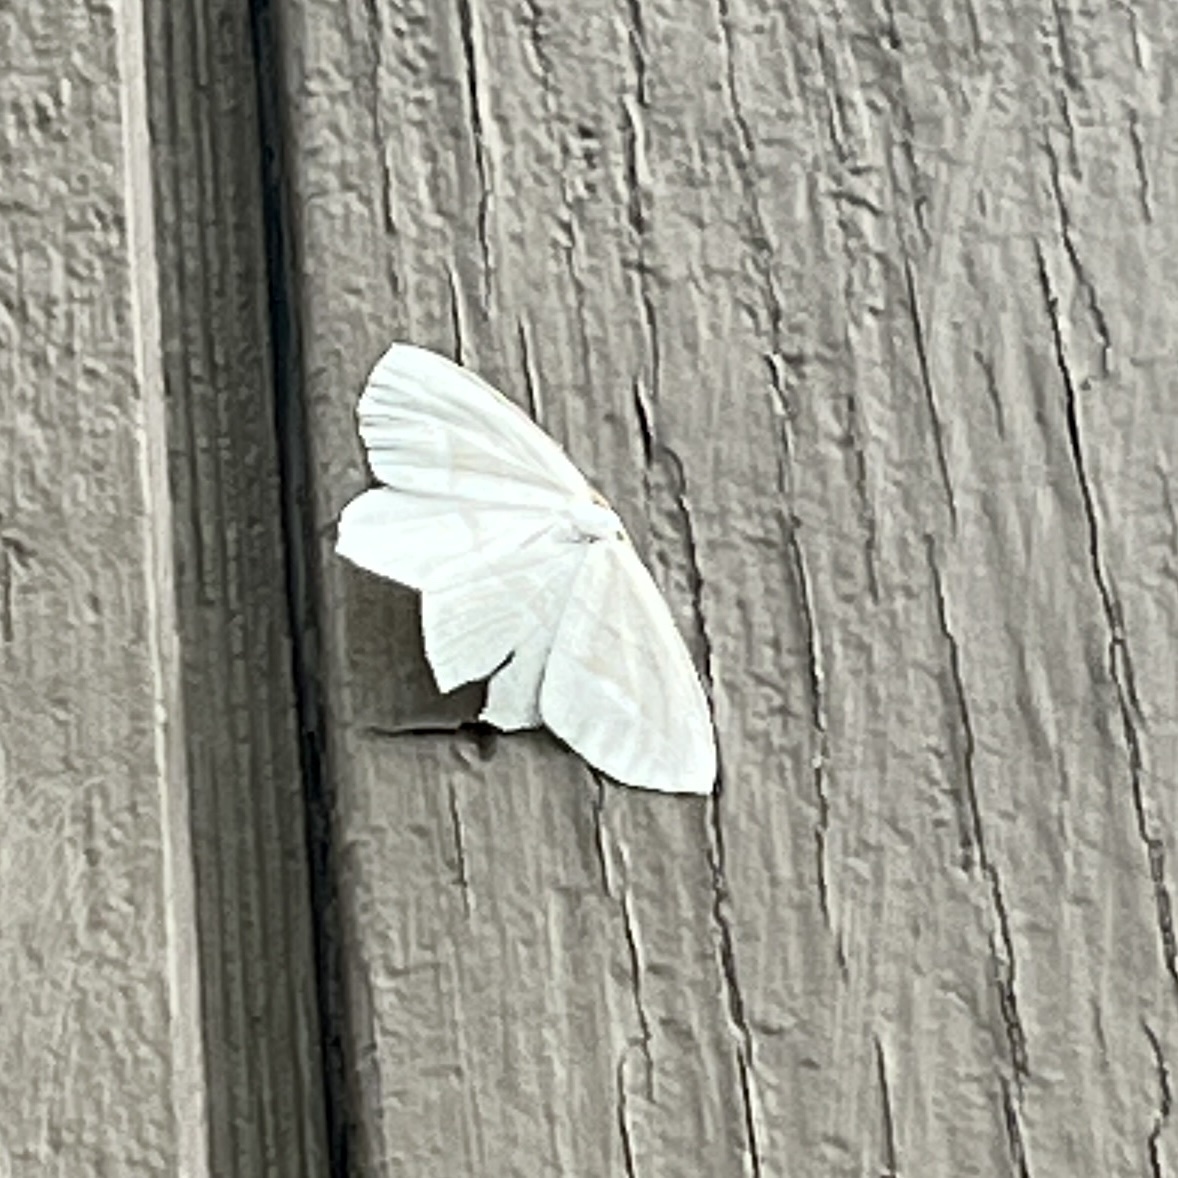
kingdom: Animalia
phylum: Arthropoda
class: Insecta
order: Lepidoptera
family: Geometridae
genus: Campaea
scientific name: Campaea perlata
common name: Fringed looper
